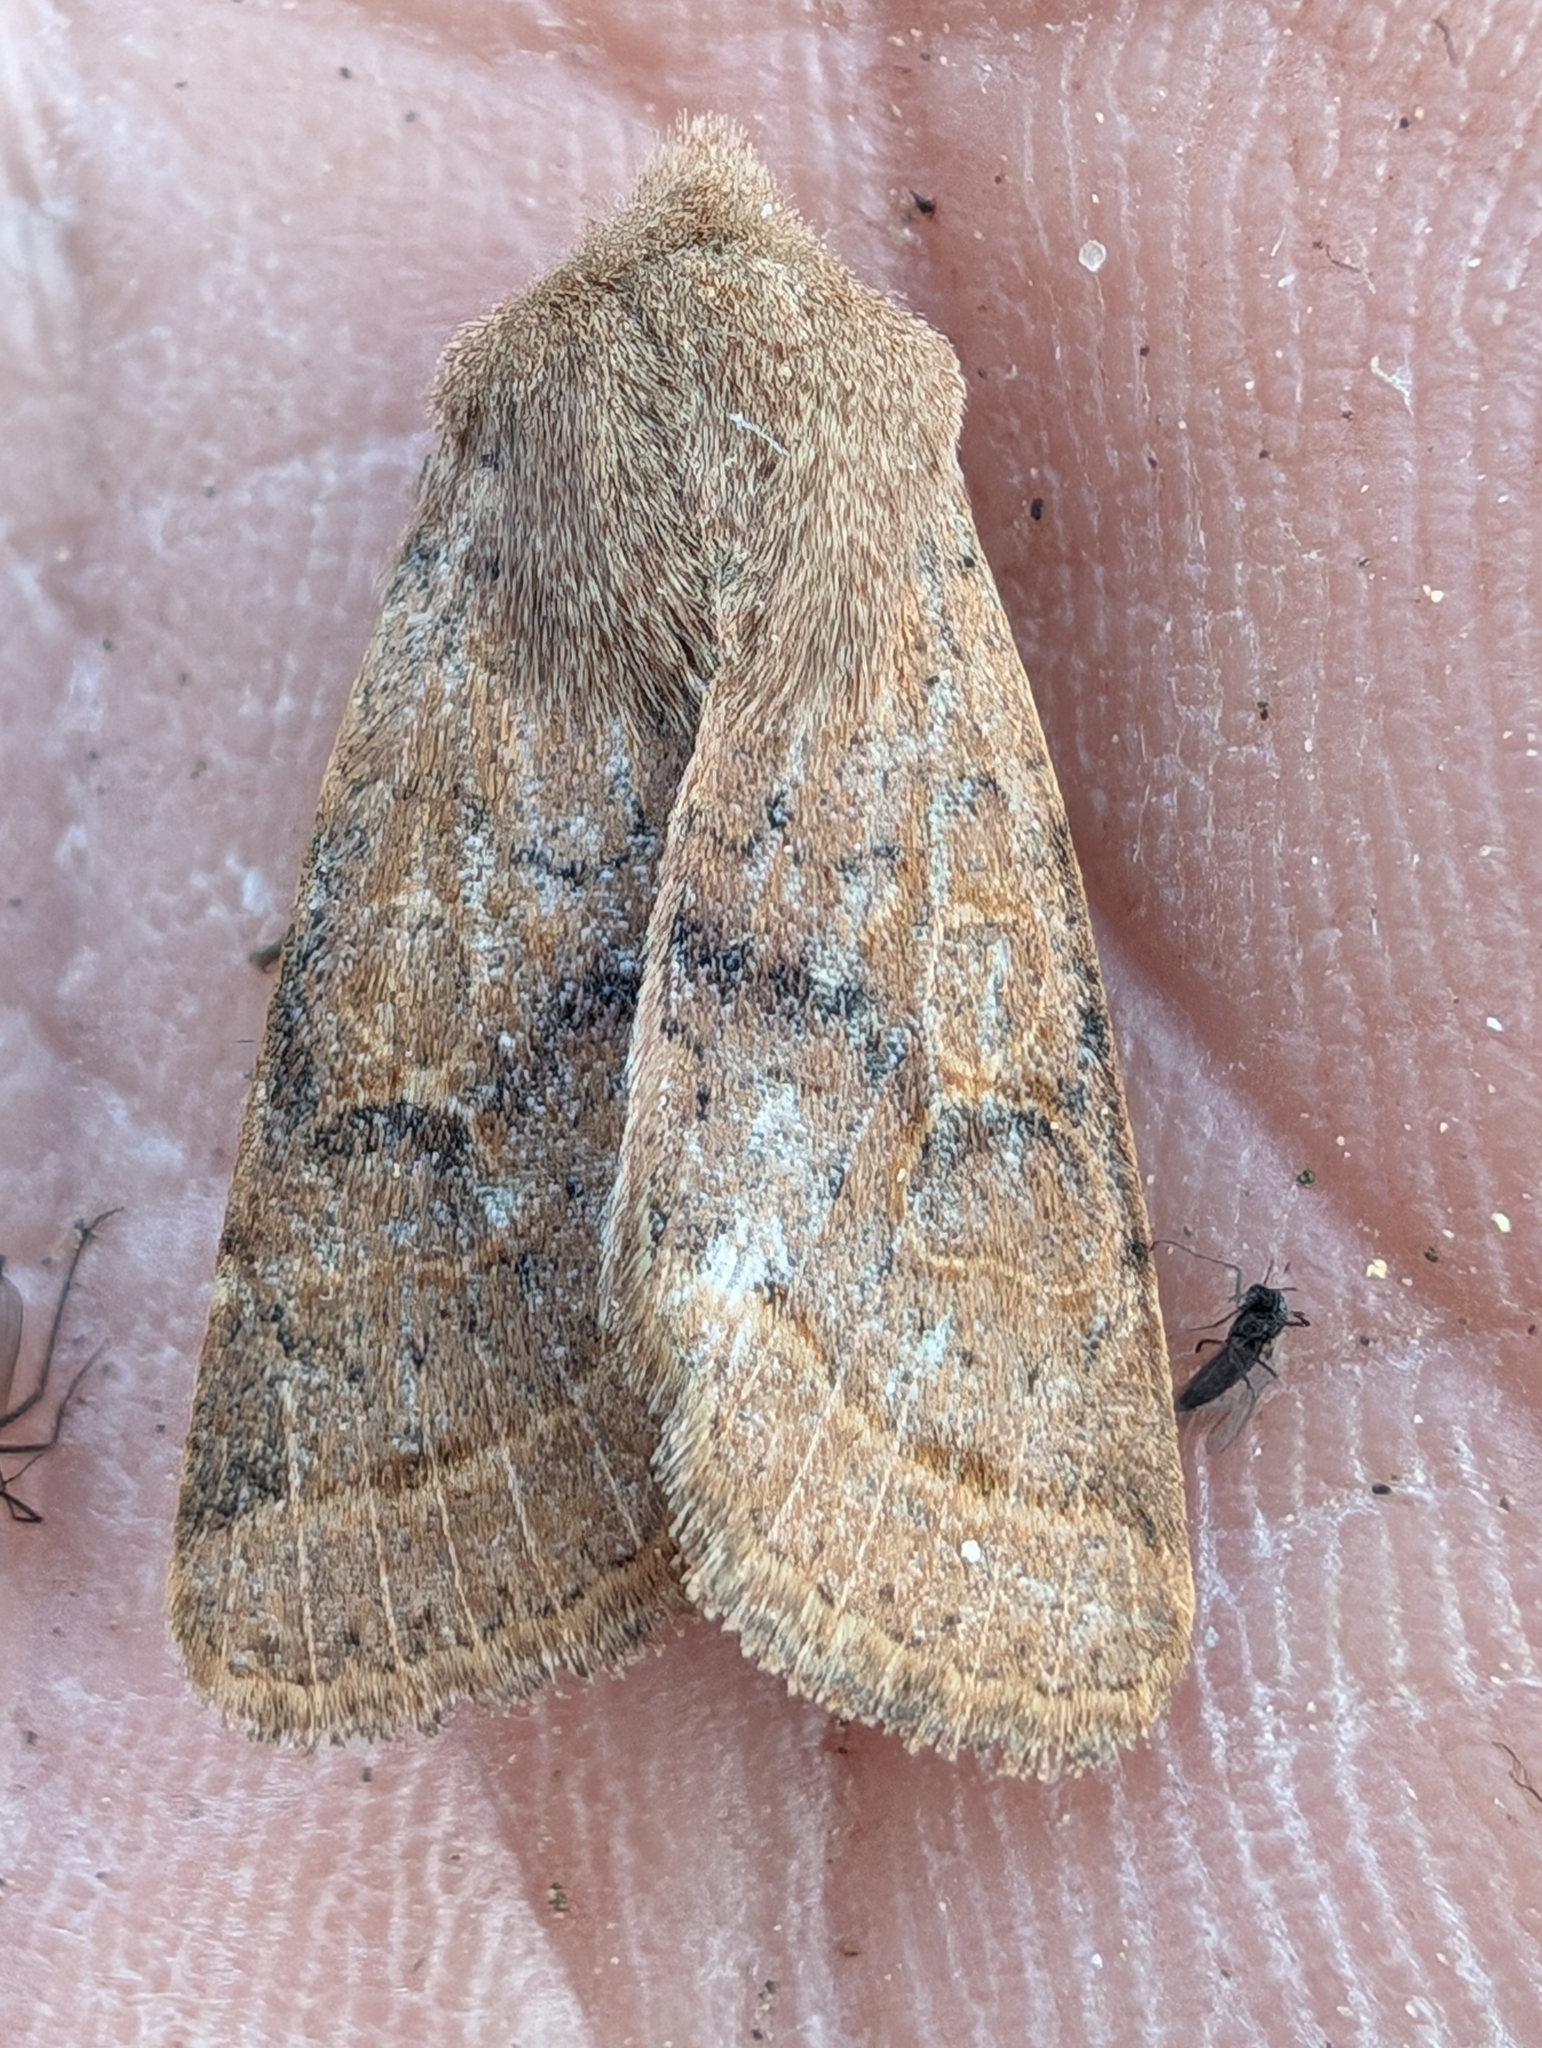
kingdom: Animalia
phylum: Arthropoda
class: Insecta
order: Lepidoptera
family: Noctuidae
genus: Orthosia
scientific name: Orthosia cerasi
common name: Common quaker
